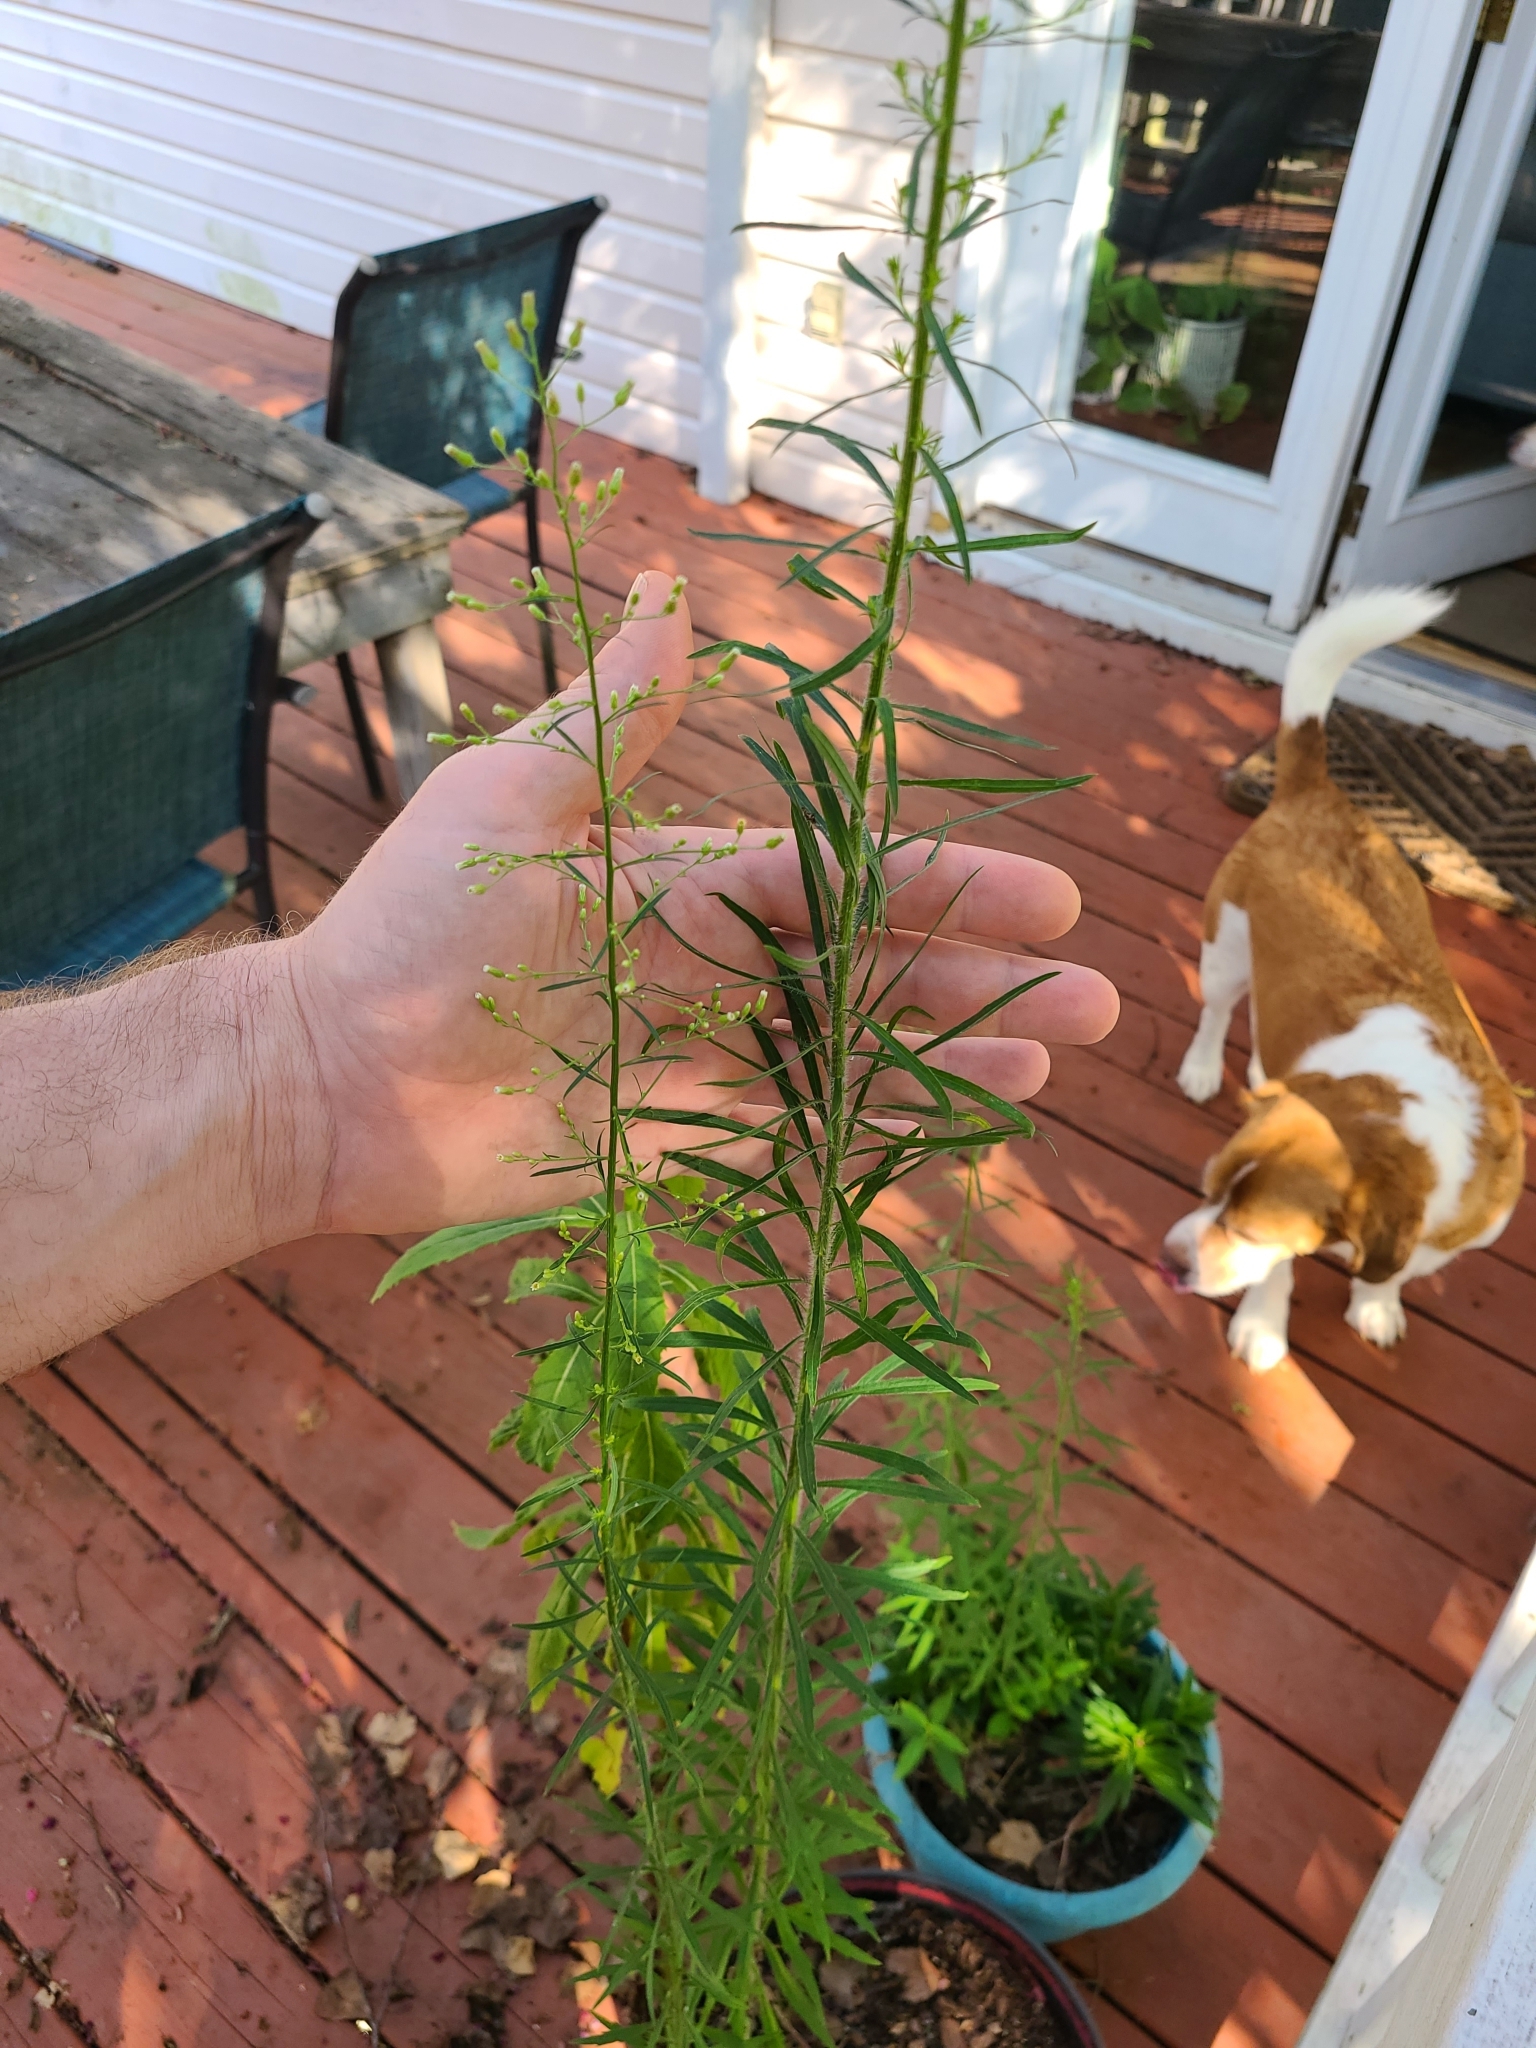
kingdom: Plantae
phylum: Tracheophyta
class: Magnoliopsida
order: Asterales
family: Asteraceae
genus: Erigeron
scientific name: Erigeron canadensis
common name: Canadian fleabane
